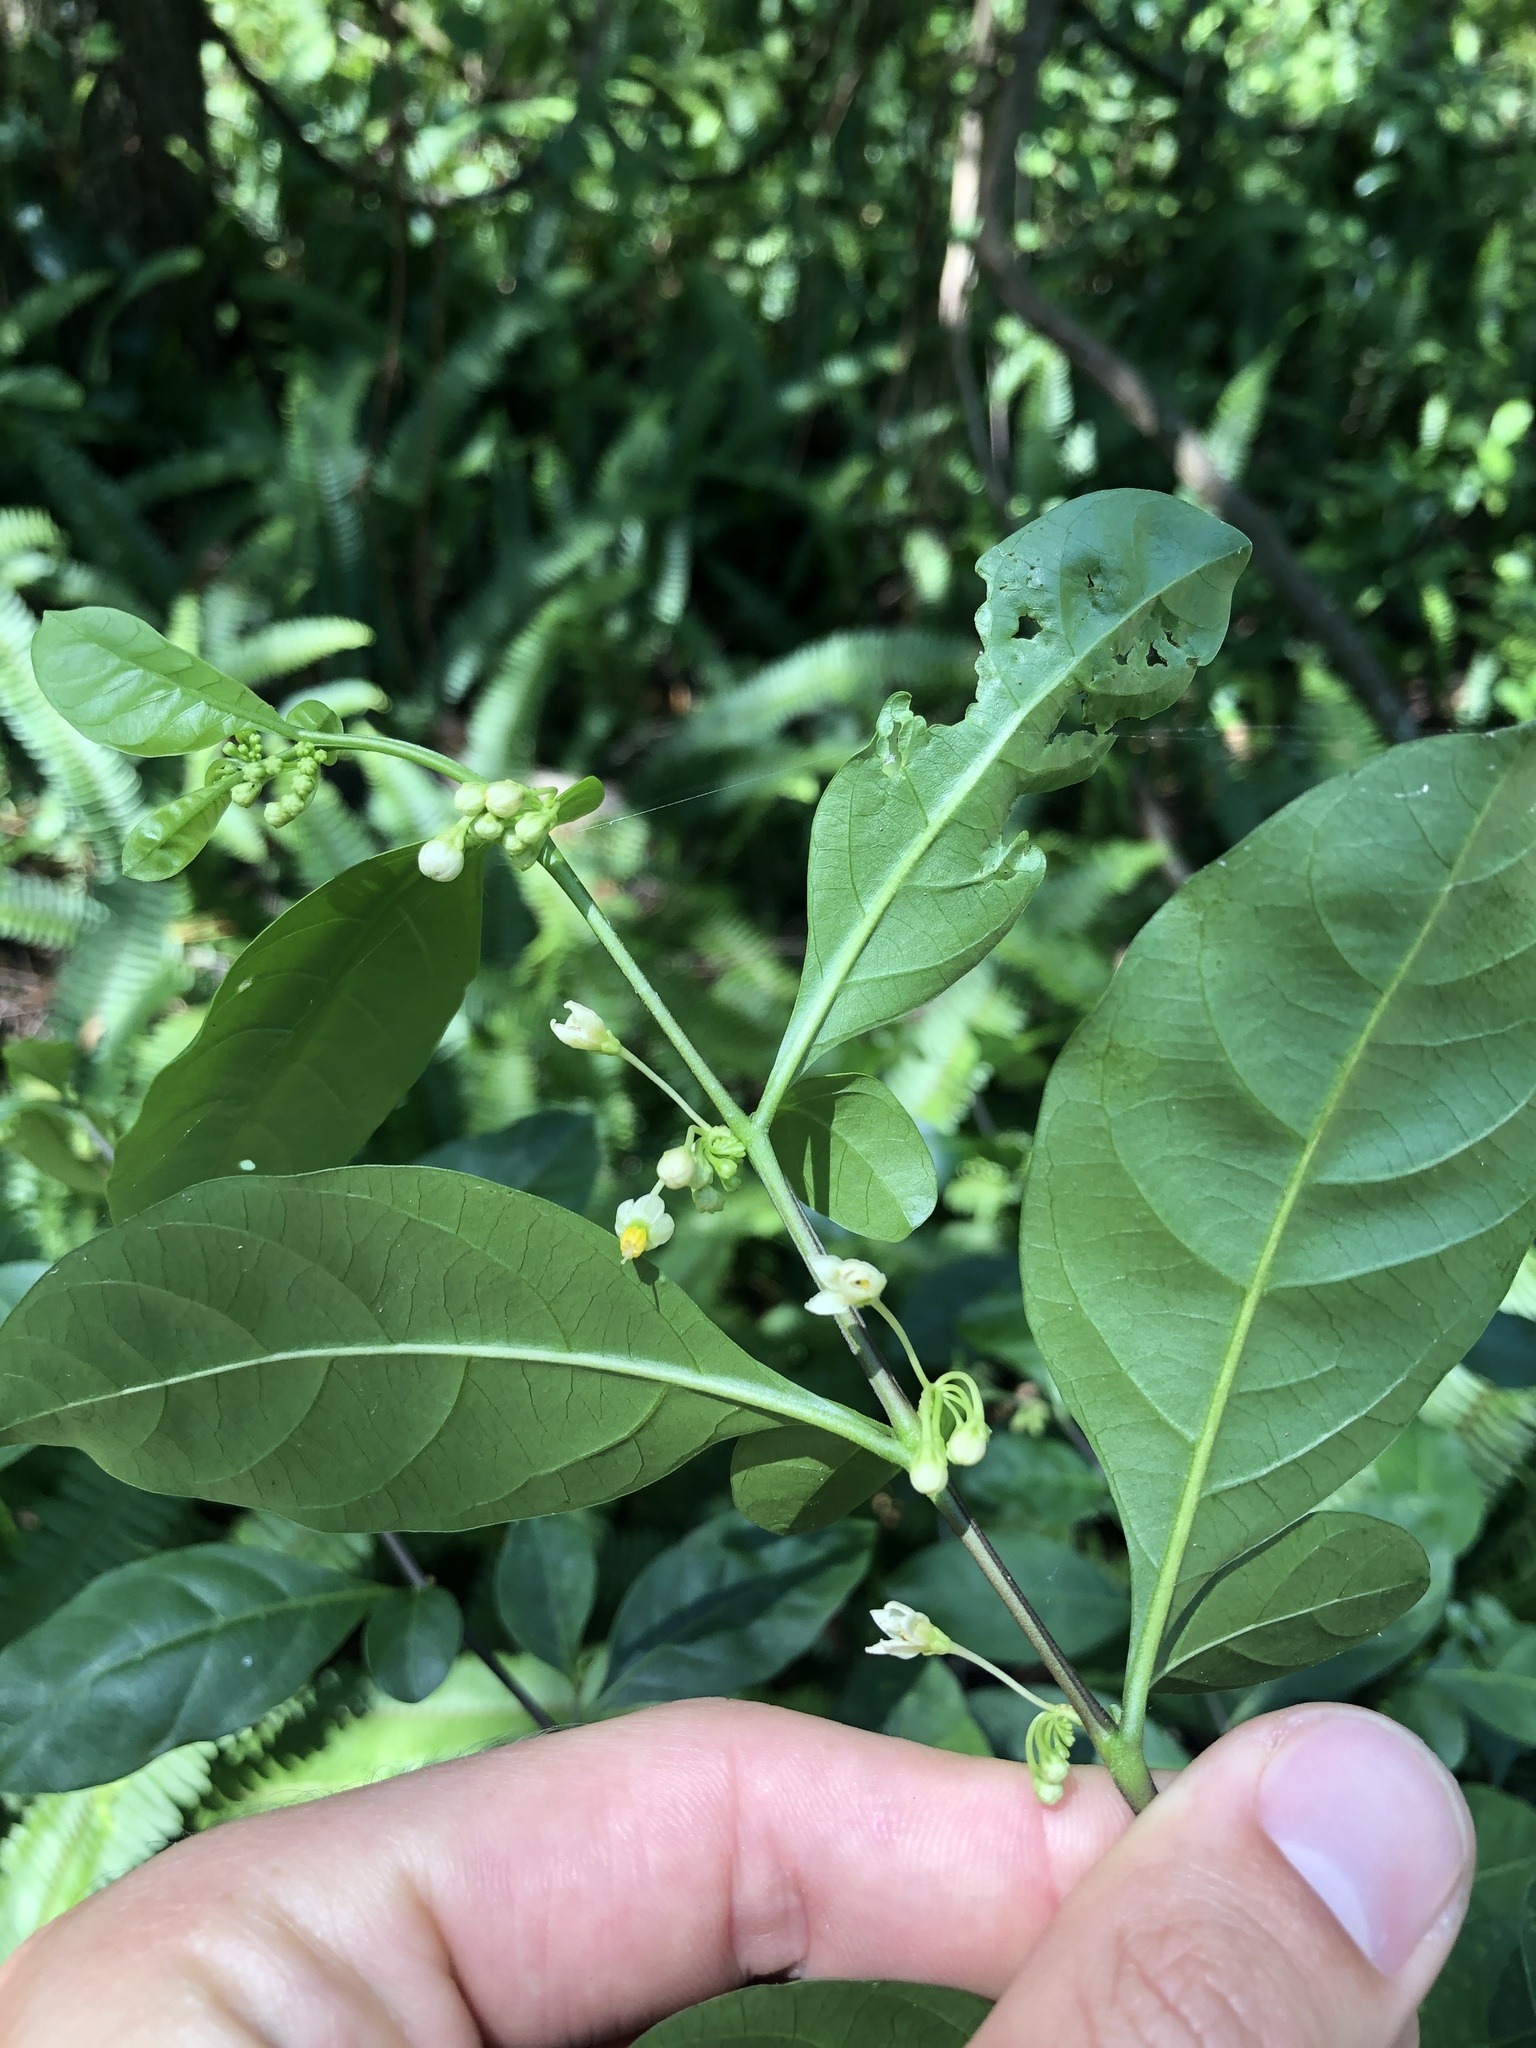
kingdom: Plantae
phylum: Tracheophyta
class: Magnoliopsida
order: Solanales
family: Solanaceae
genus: Solanum
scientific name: Solanum diphyllum
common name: Twoleaf nightshade
